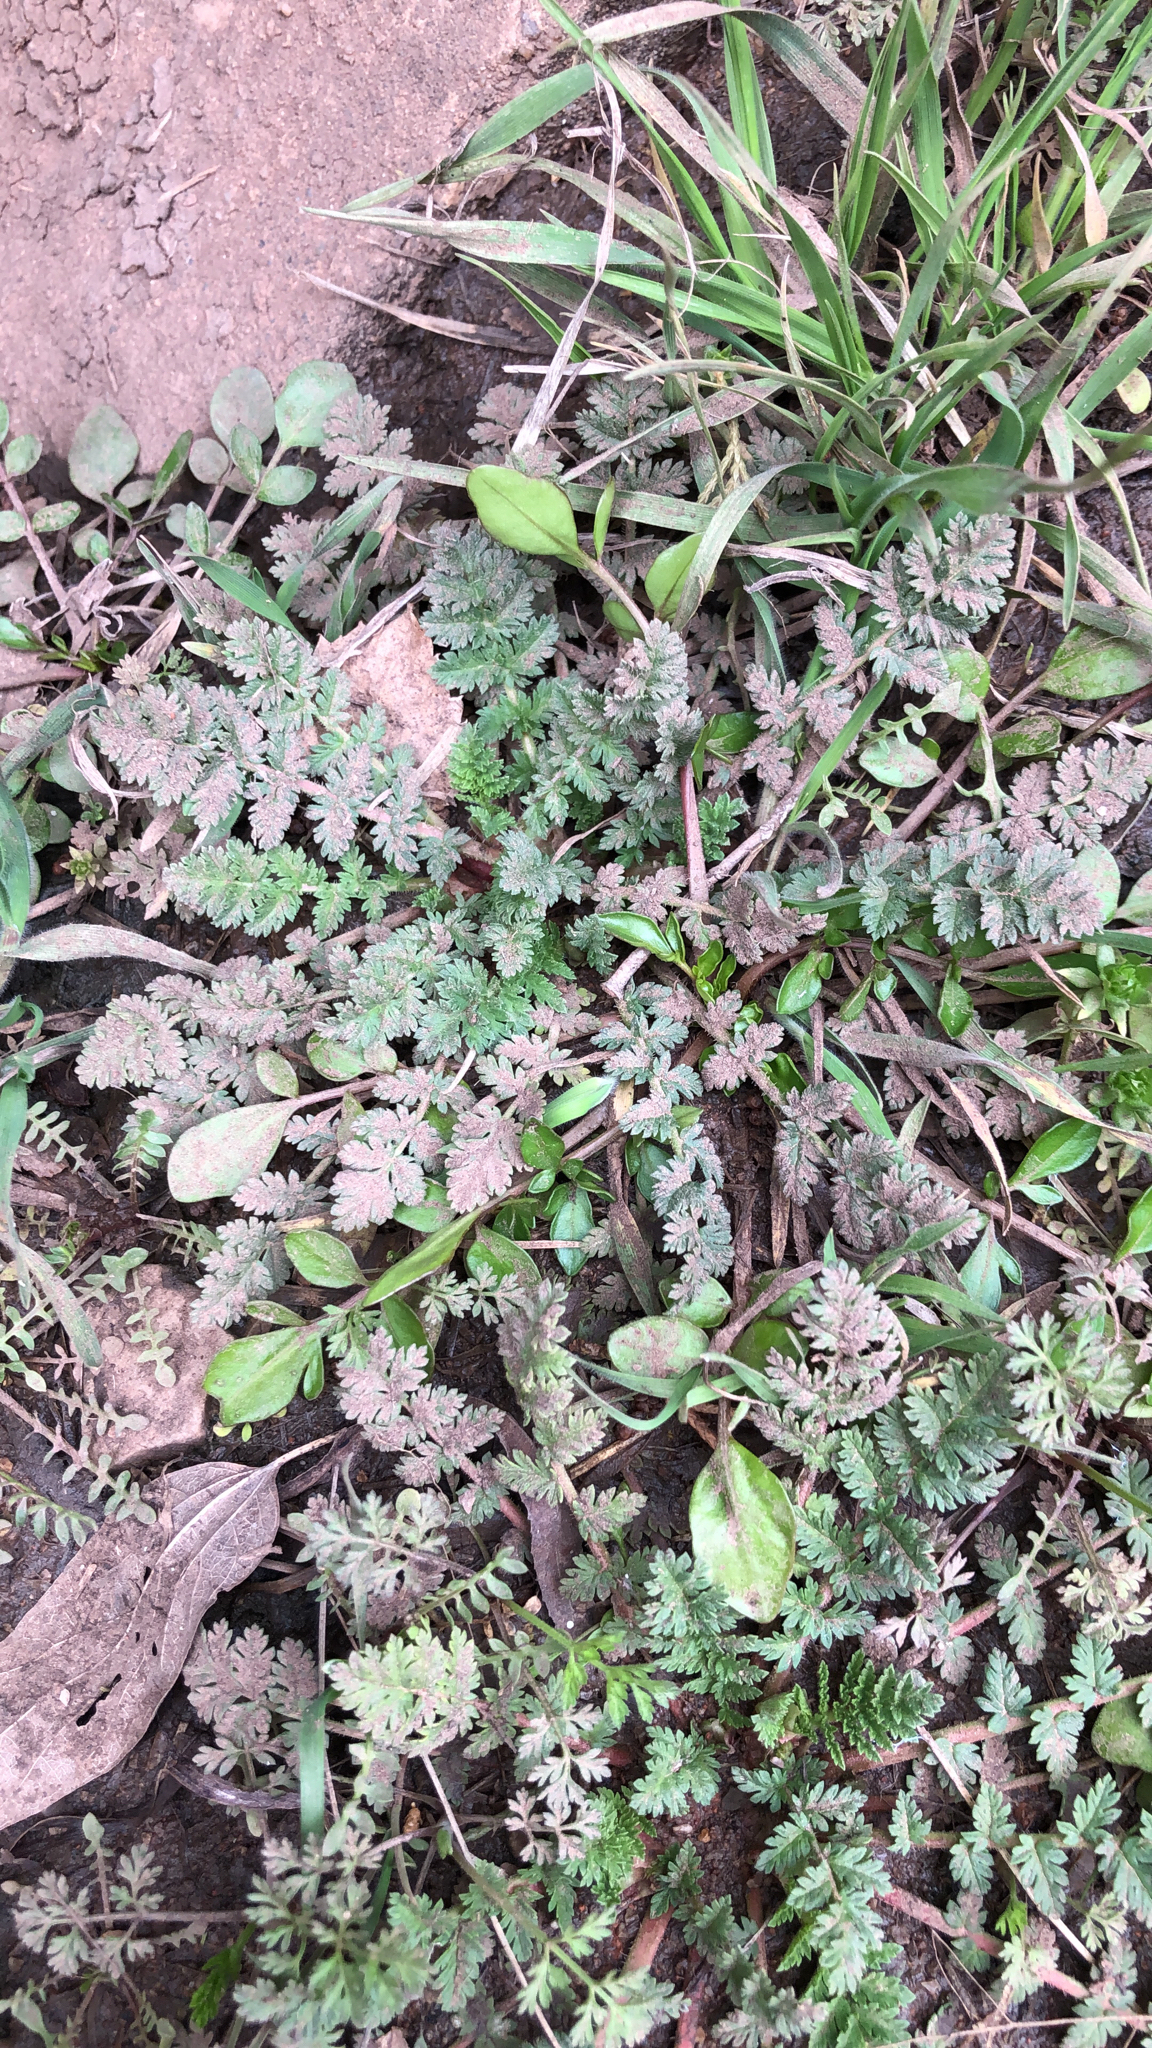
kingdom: Plantae
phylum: Tracheophyta
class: Magnoliopsida
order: Geraniales
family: Geraniaceae
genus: Erodium
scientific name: Erodium cicutarium
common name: Common stork's-bill
